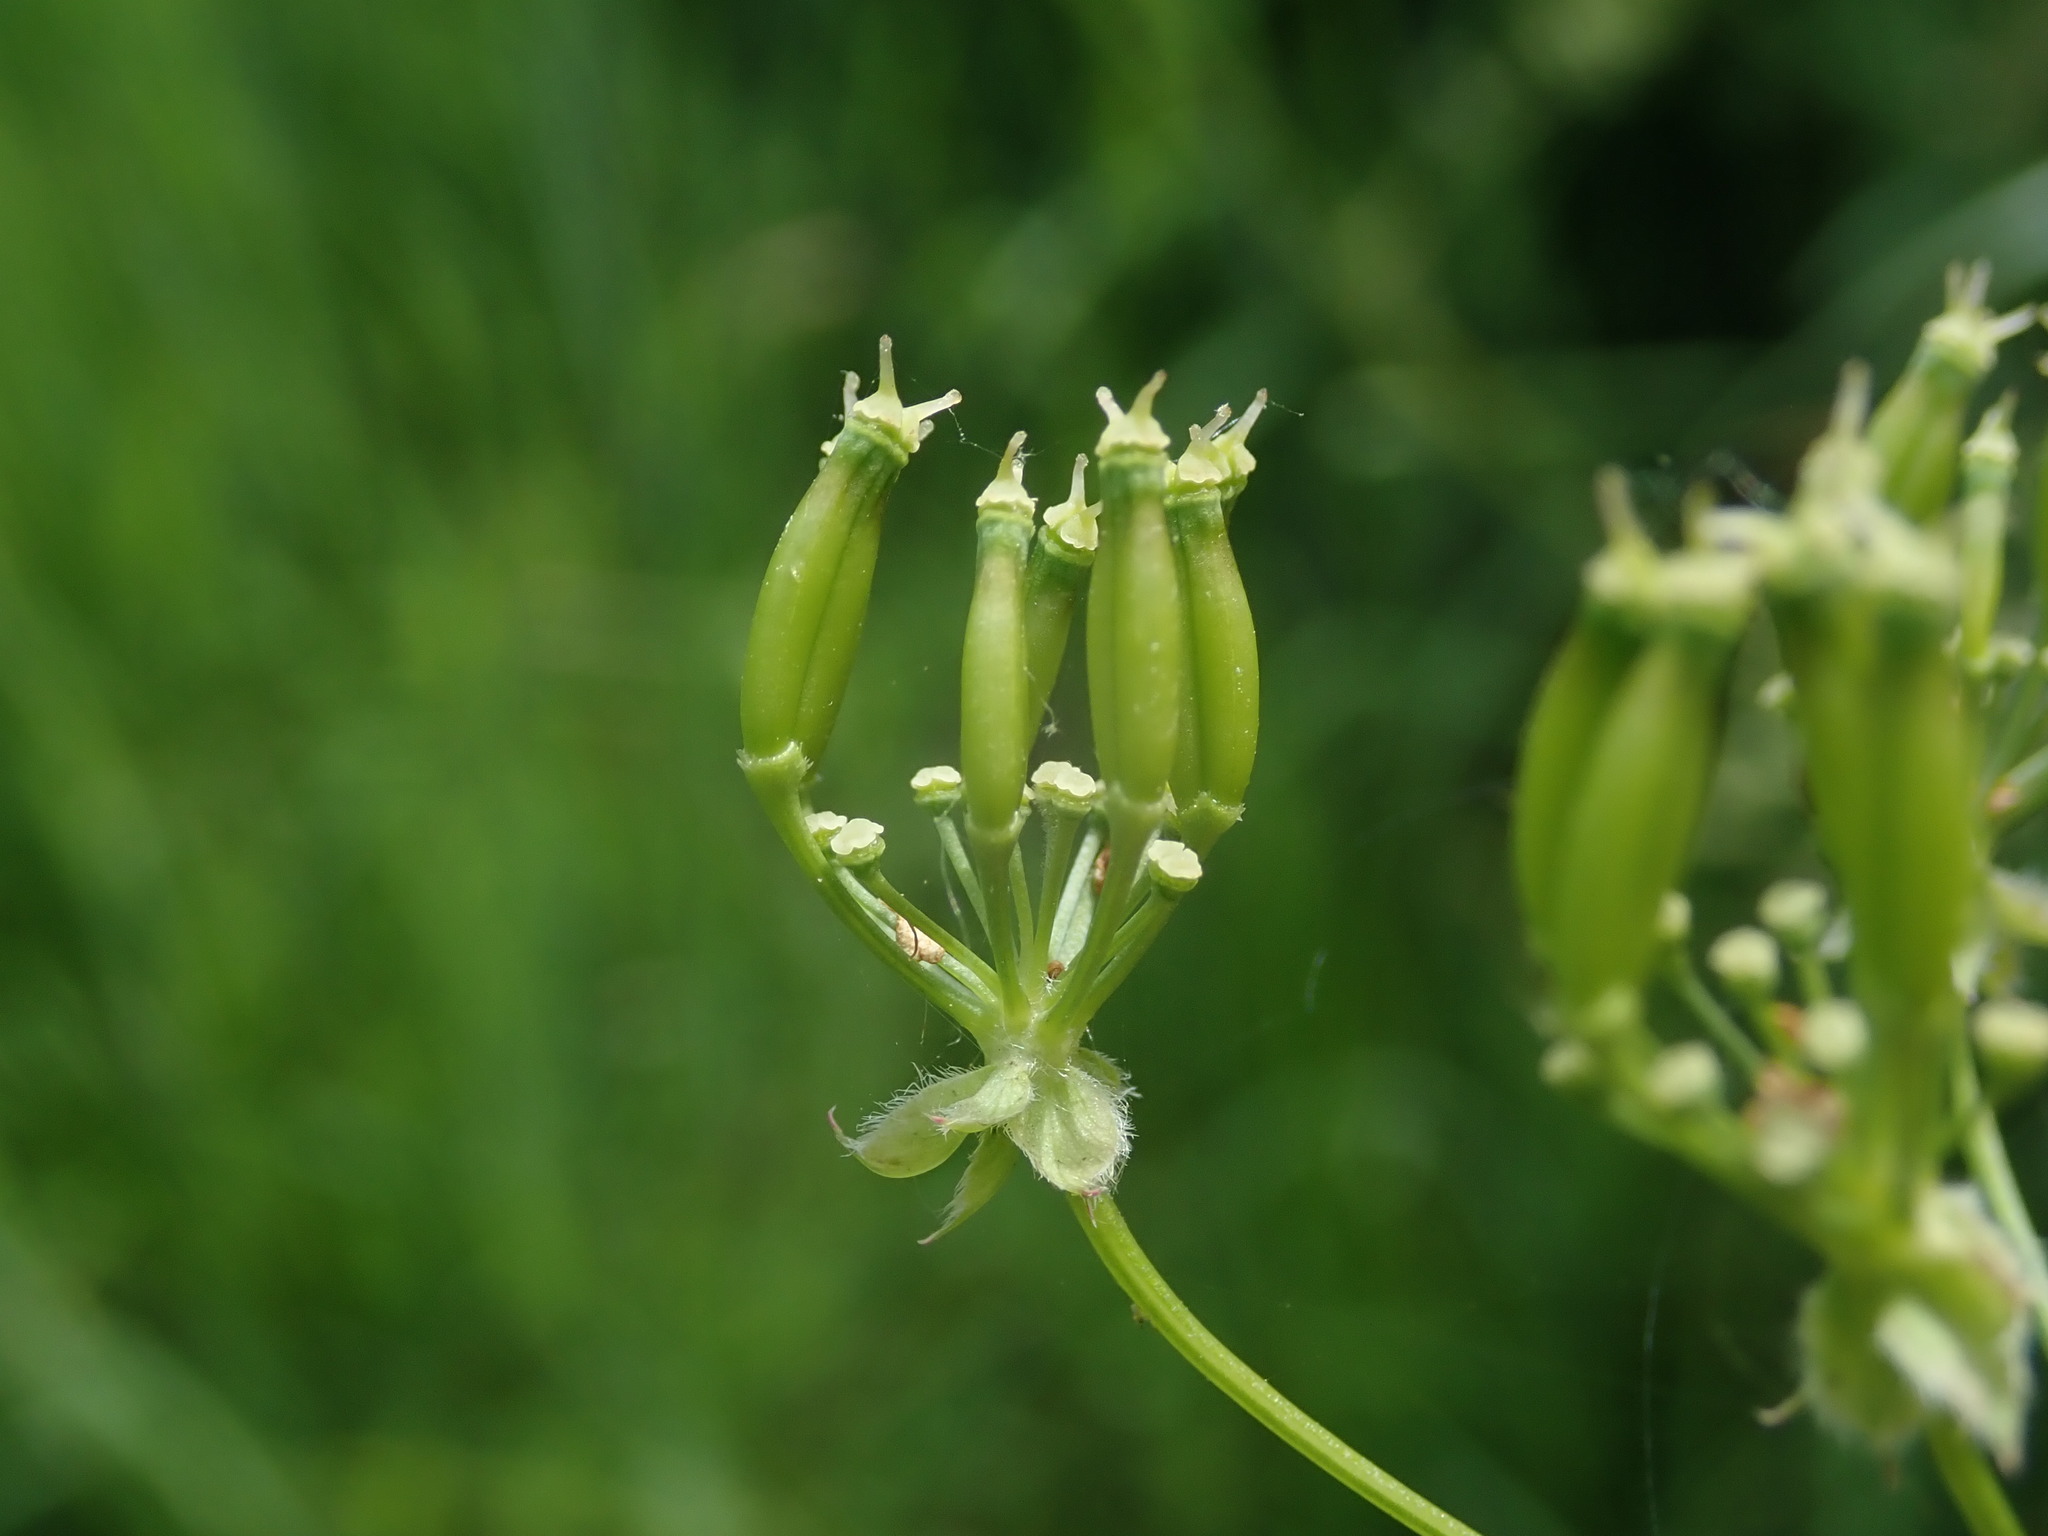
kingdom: Plantae
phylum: Tracheophyta
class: Magnoliopsida
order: Apiales
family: Apiaceae
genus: Anthriscus
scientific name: Anthriscus sylvestris
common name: Cow parsley
